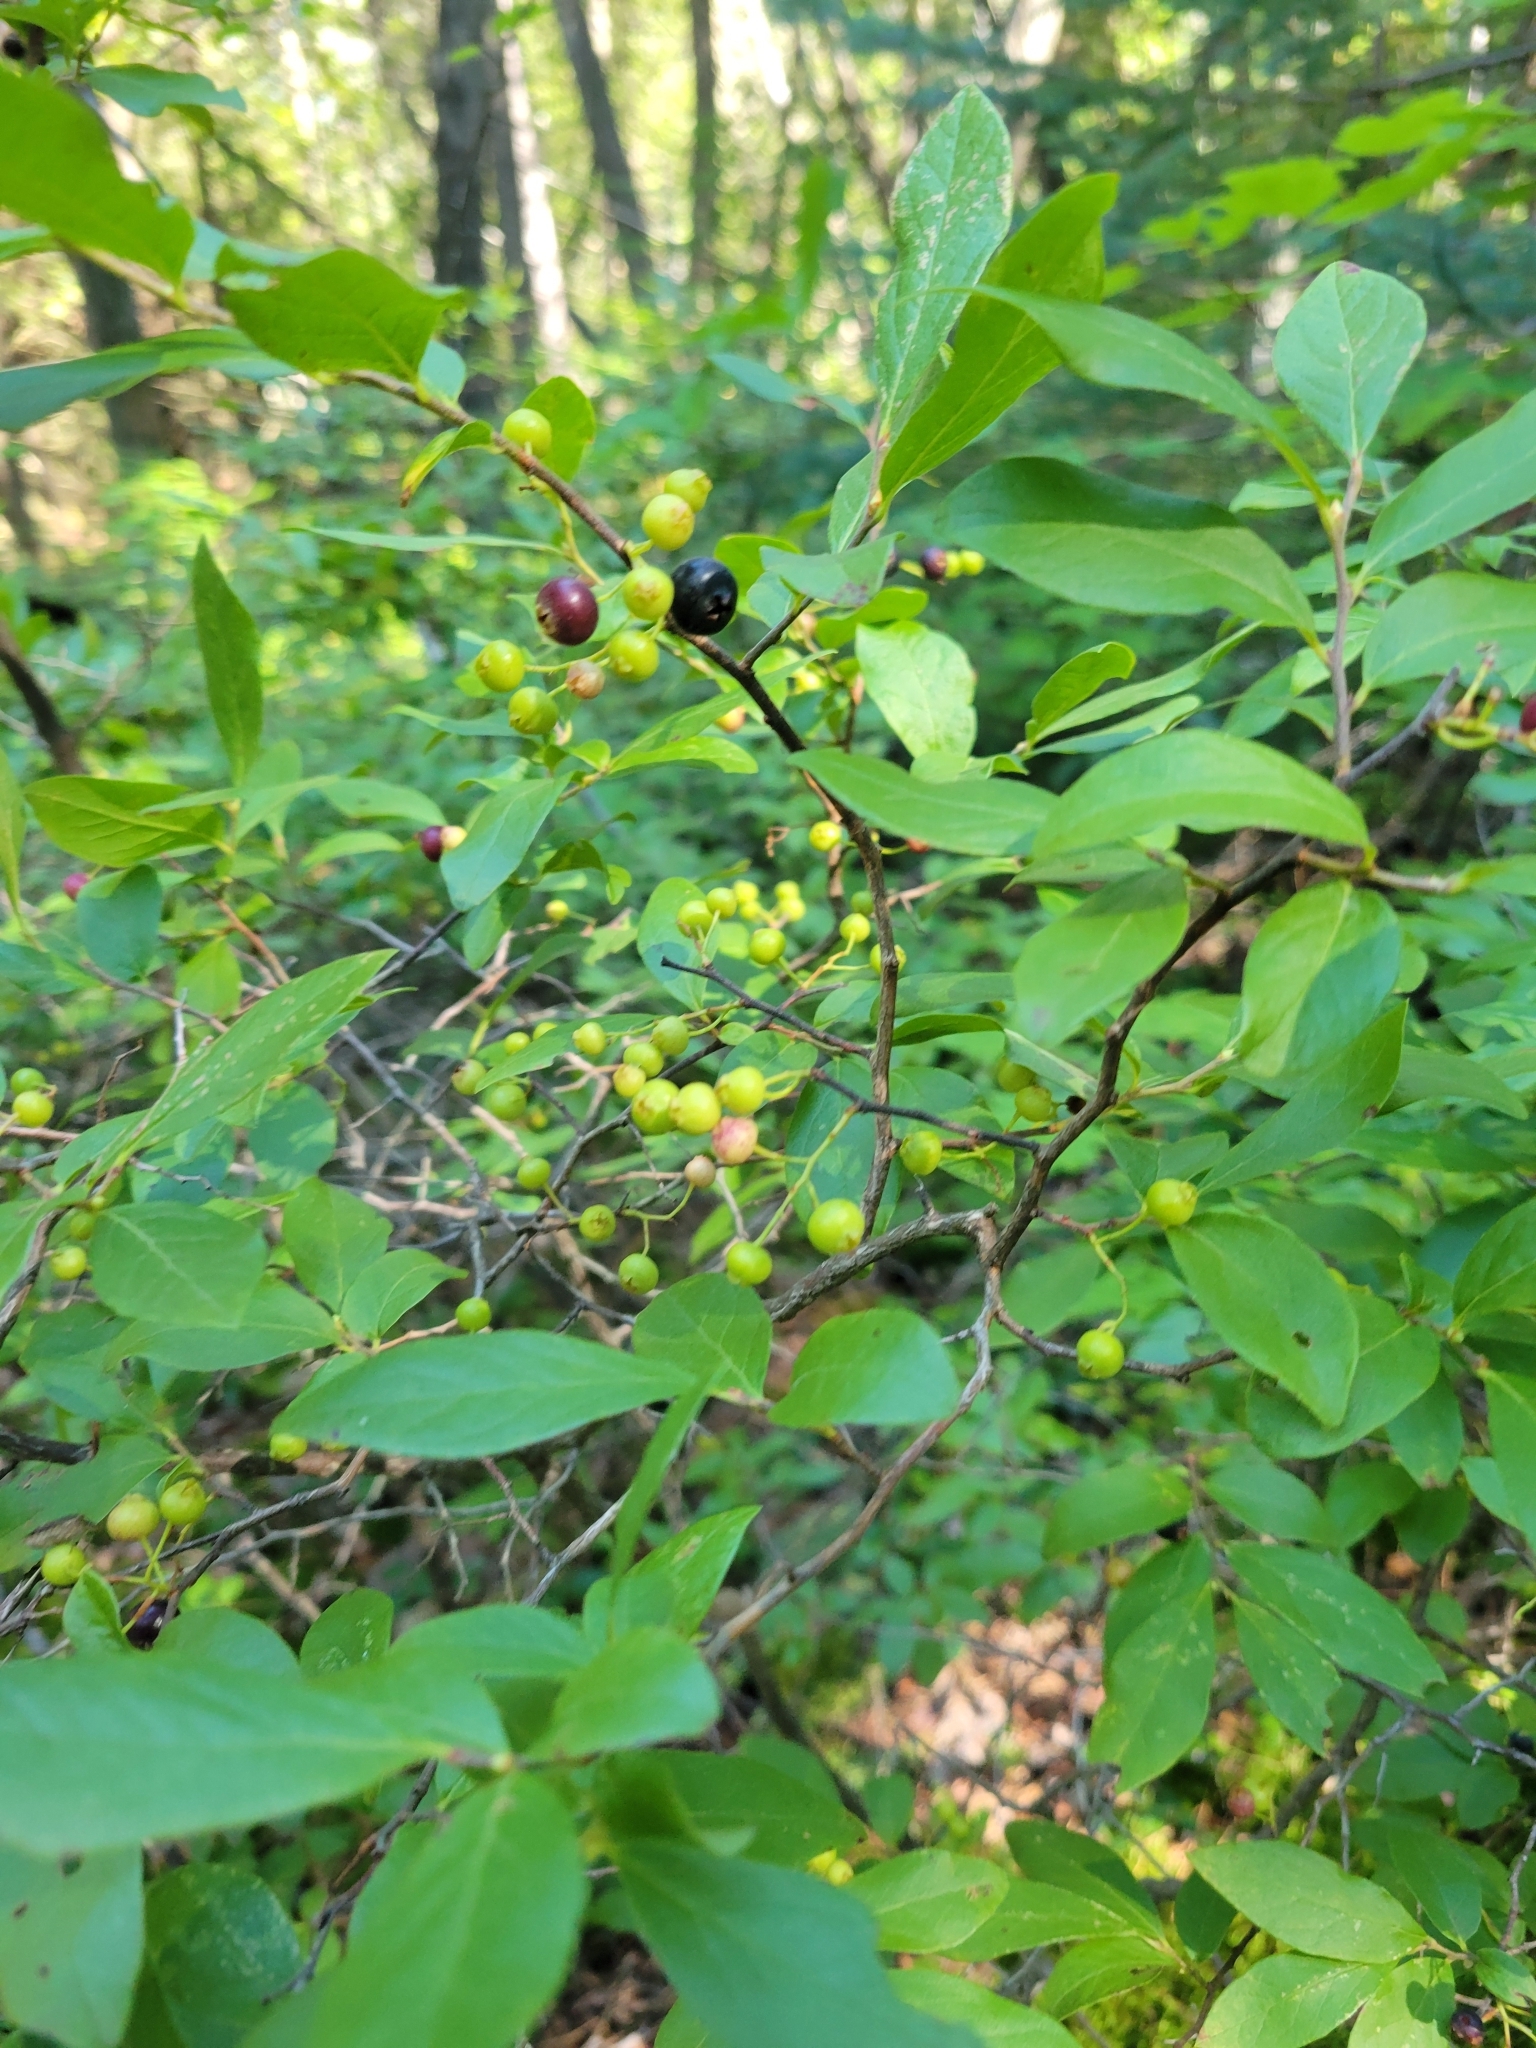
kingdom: Plantae
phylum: Tracheophyta
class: Magnoliopsida
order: Ericales
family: Ericaceae
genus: Gaylussacia
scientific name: Gaylussacia baccata
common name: Black huckleberry
